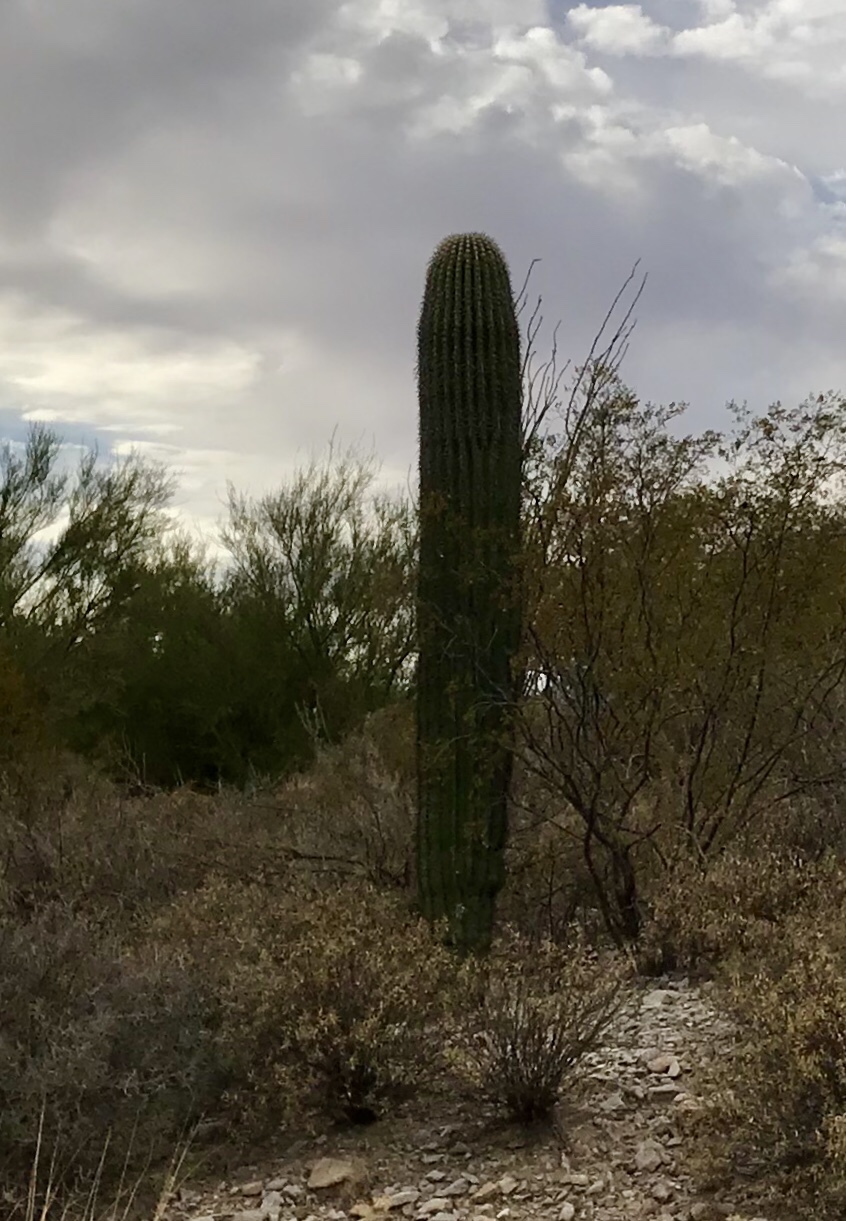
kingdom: Plantae
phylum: Tracheophyta
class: Magnoliopsida
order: Caryophyllales
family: Cactaceae
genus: Carnegiea
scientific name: Carnegiea gigantea
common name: Saguaro
